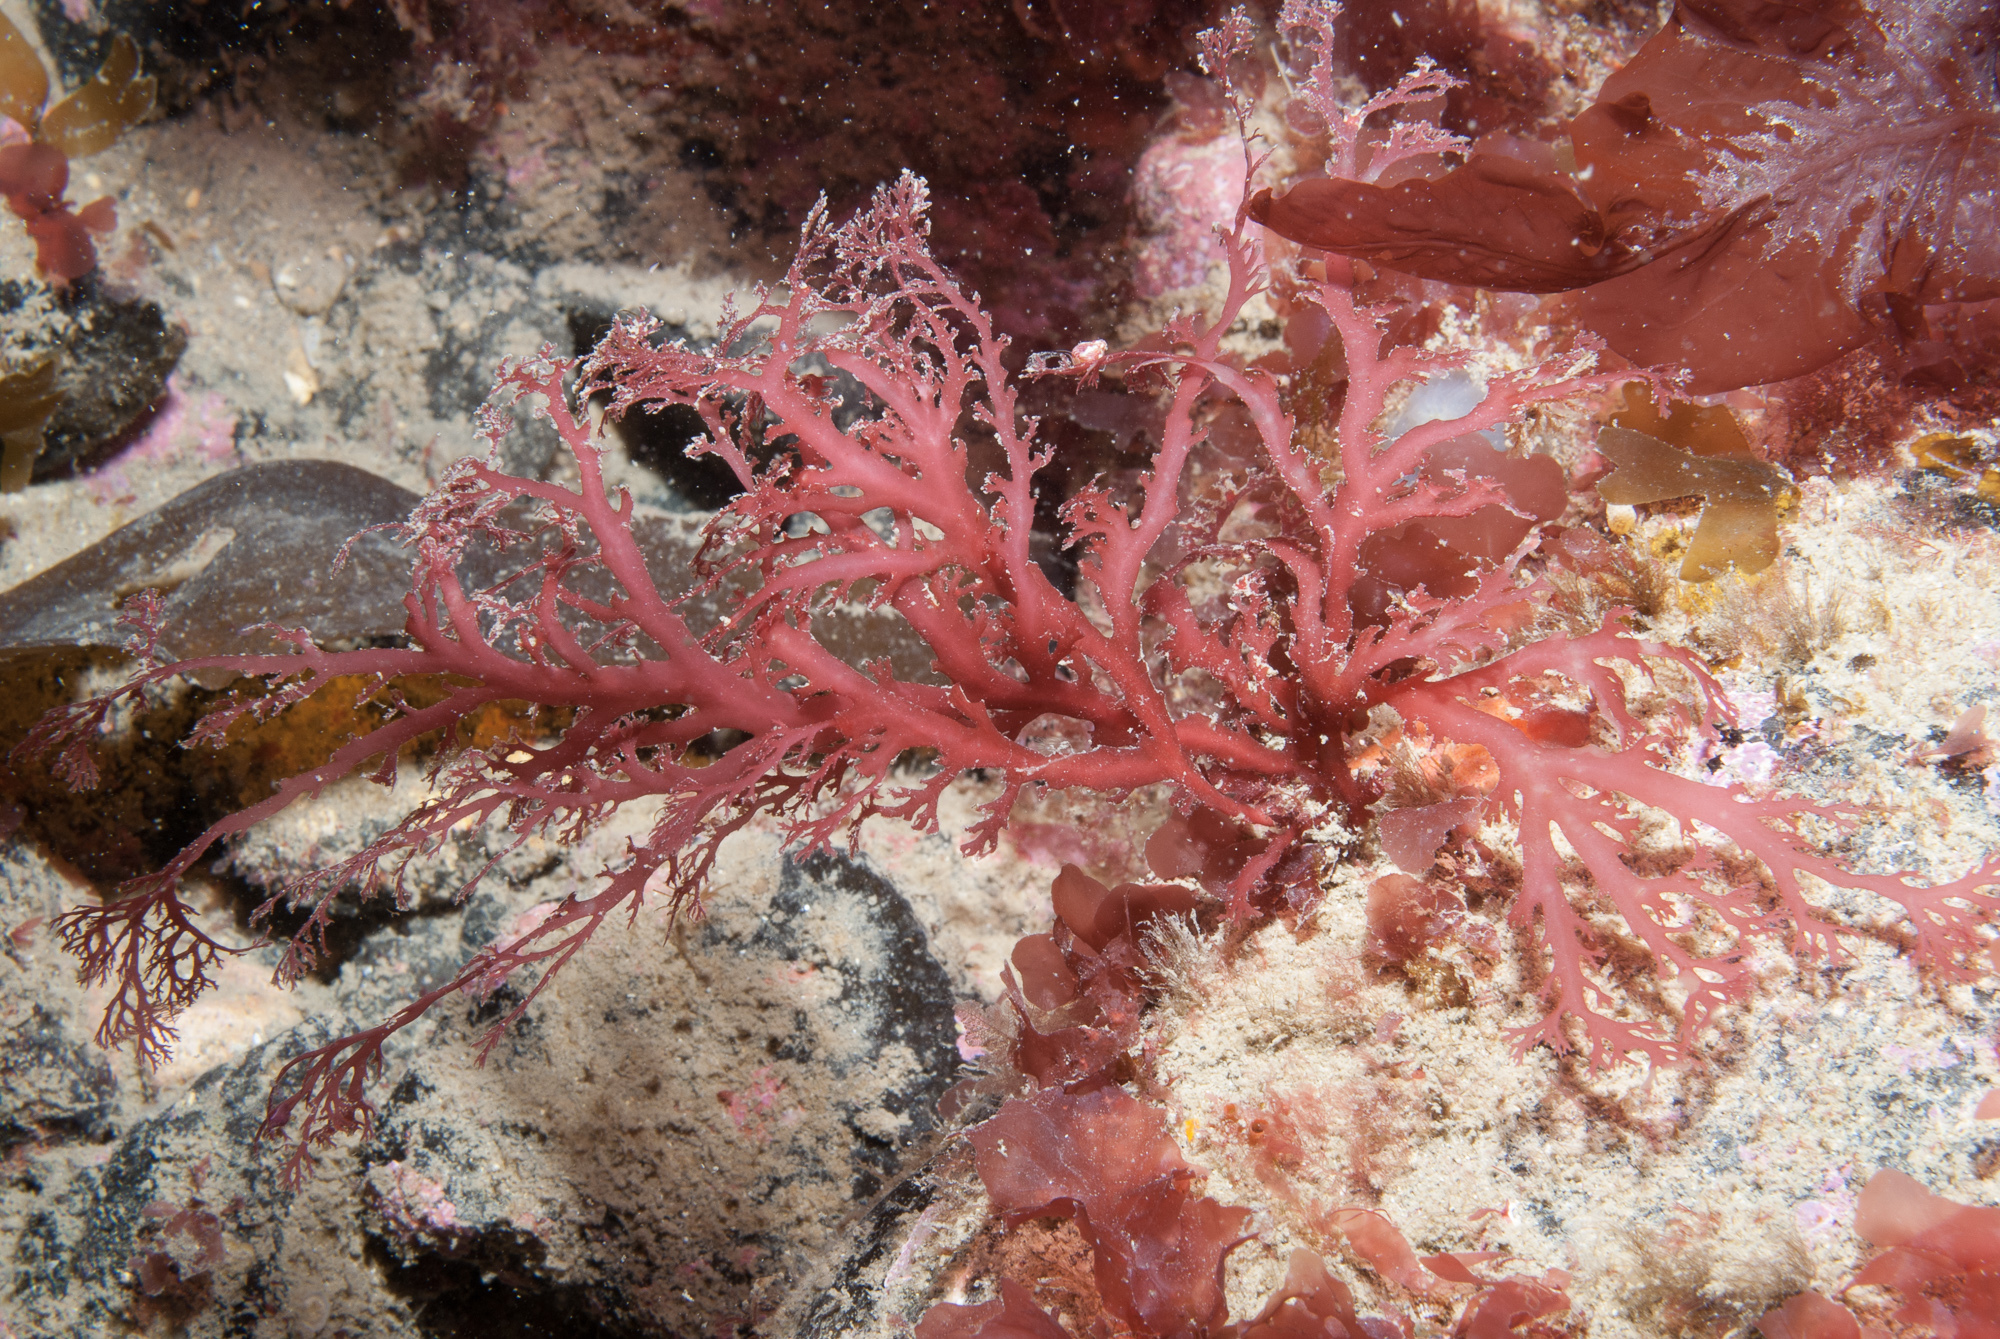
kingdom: Plantae
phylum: Rhodophyta
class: Florideophyceae
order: Gigartinales
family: Sphaerococcaceae
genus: Sphaerococcus
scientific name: Sphaerococcus coronopifolius
